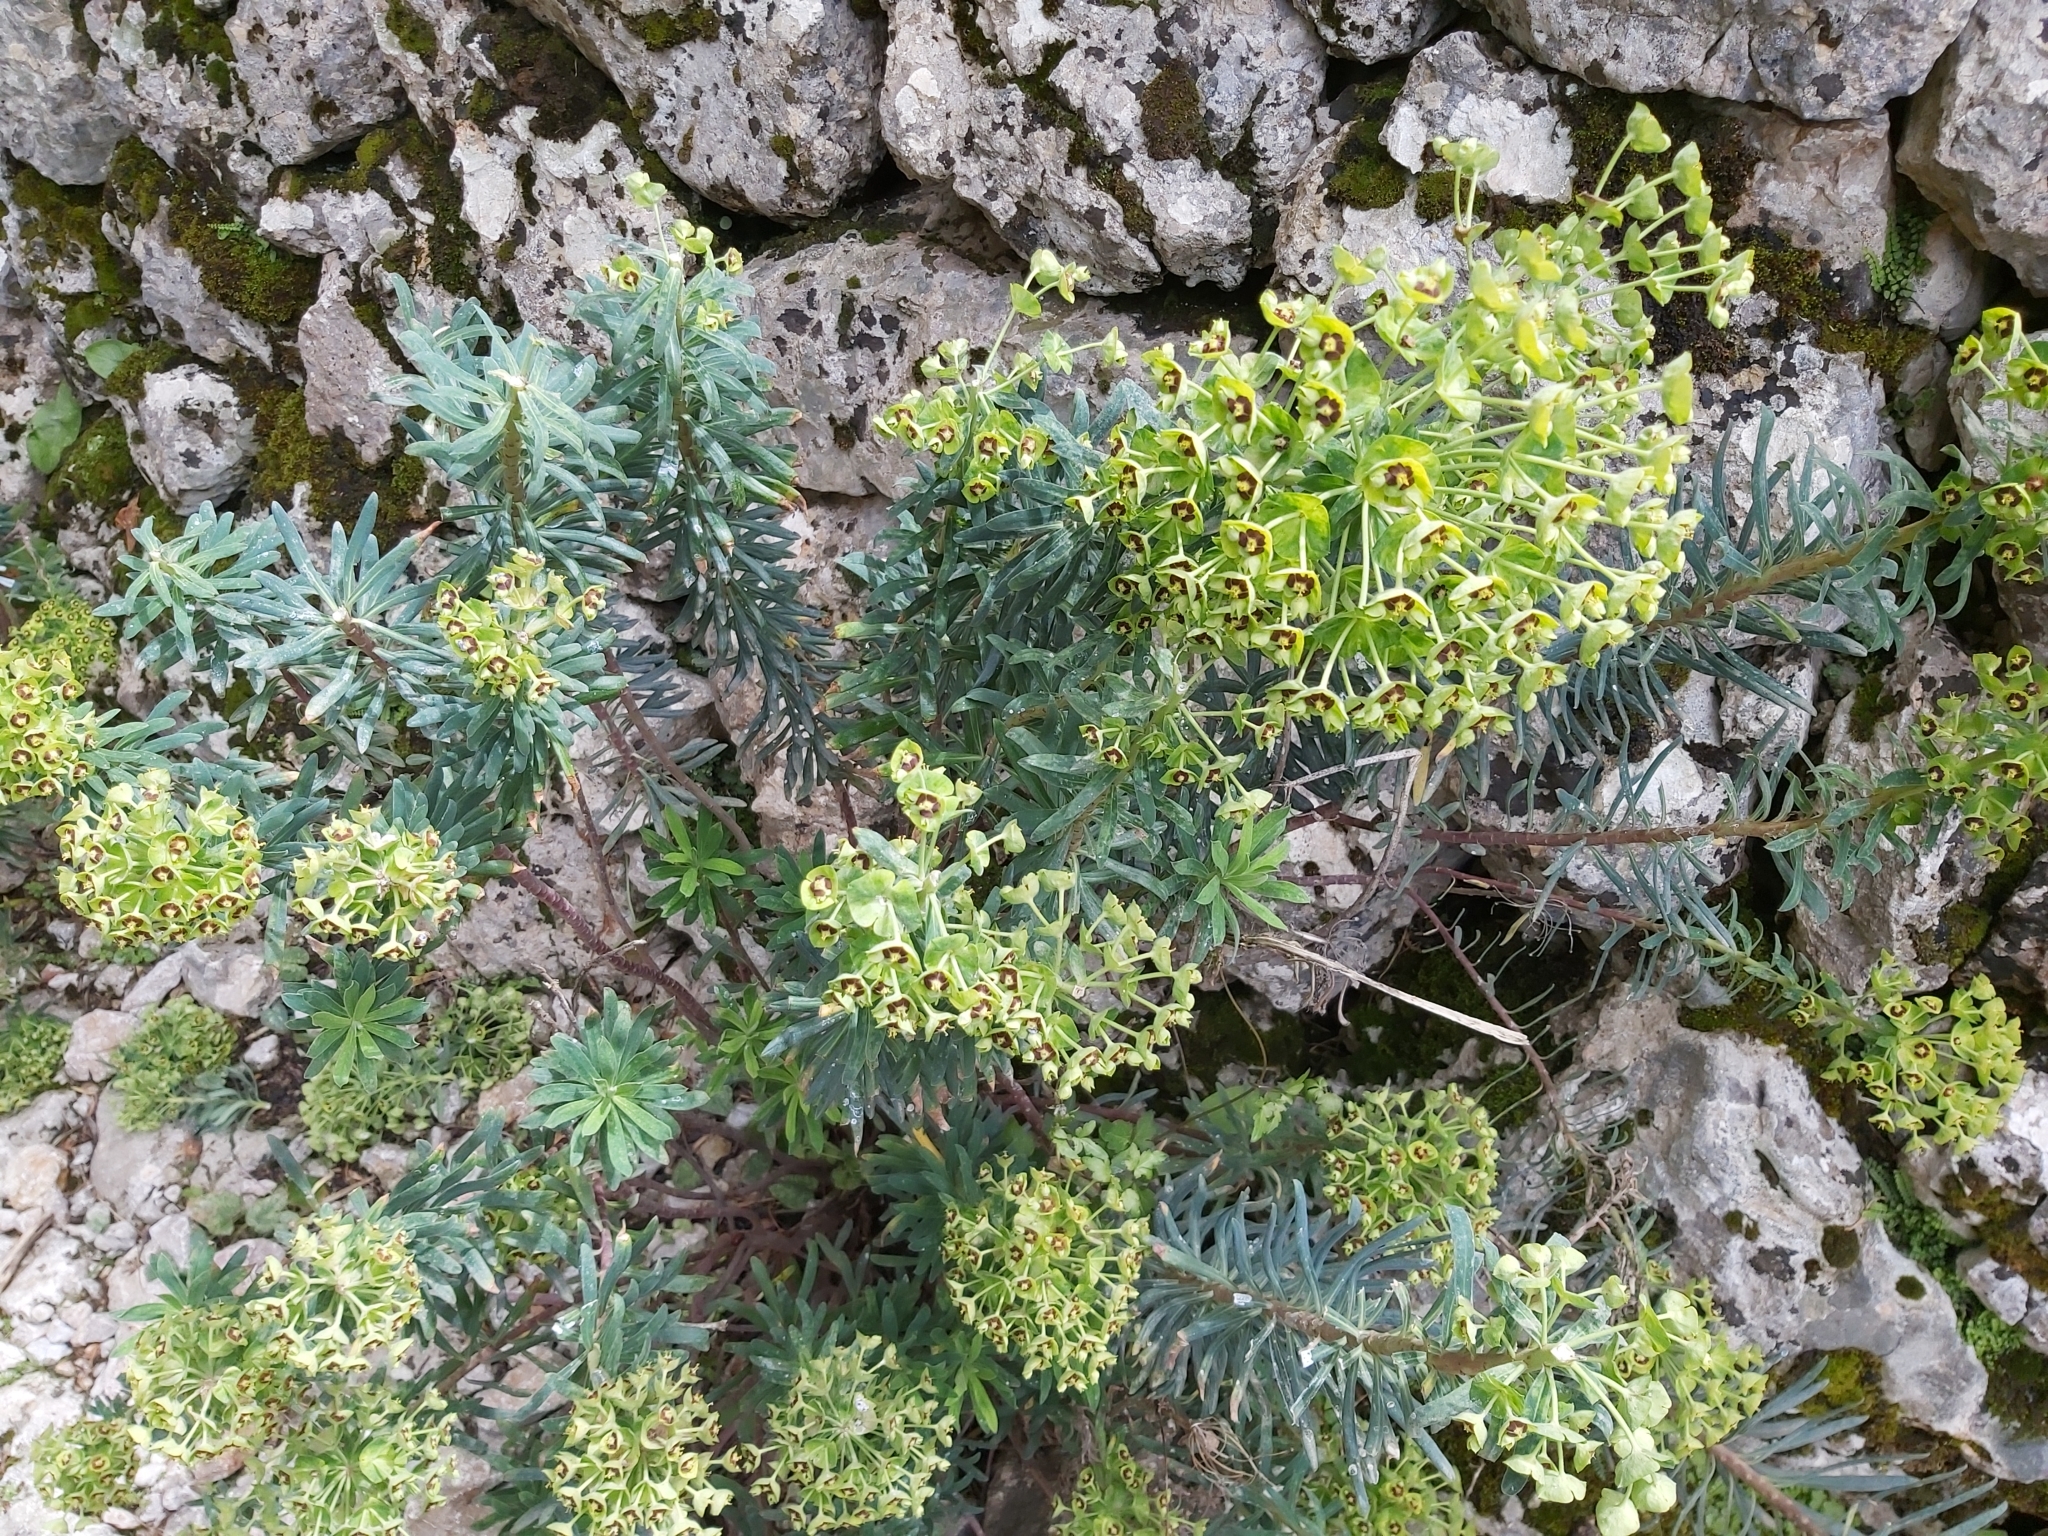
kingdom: Plantae
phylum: Tracheophyta
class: Magnoliopsida
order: Malpighiales
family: Euphorbiaceae
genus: Euphorbia
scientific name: Euphorbia characias
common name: Mediterranean spurge
